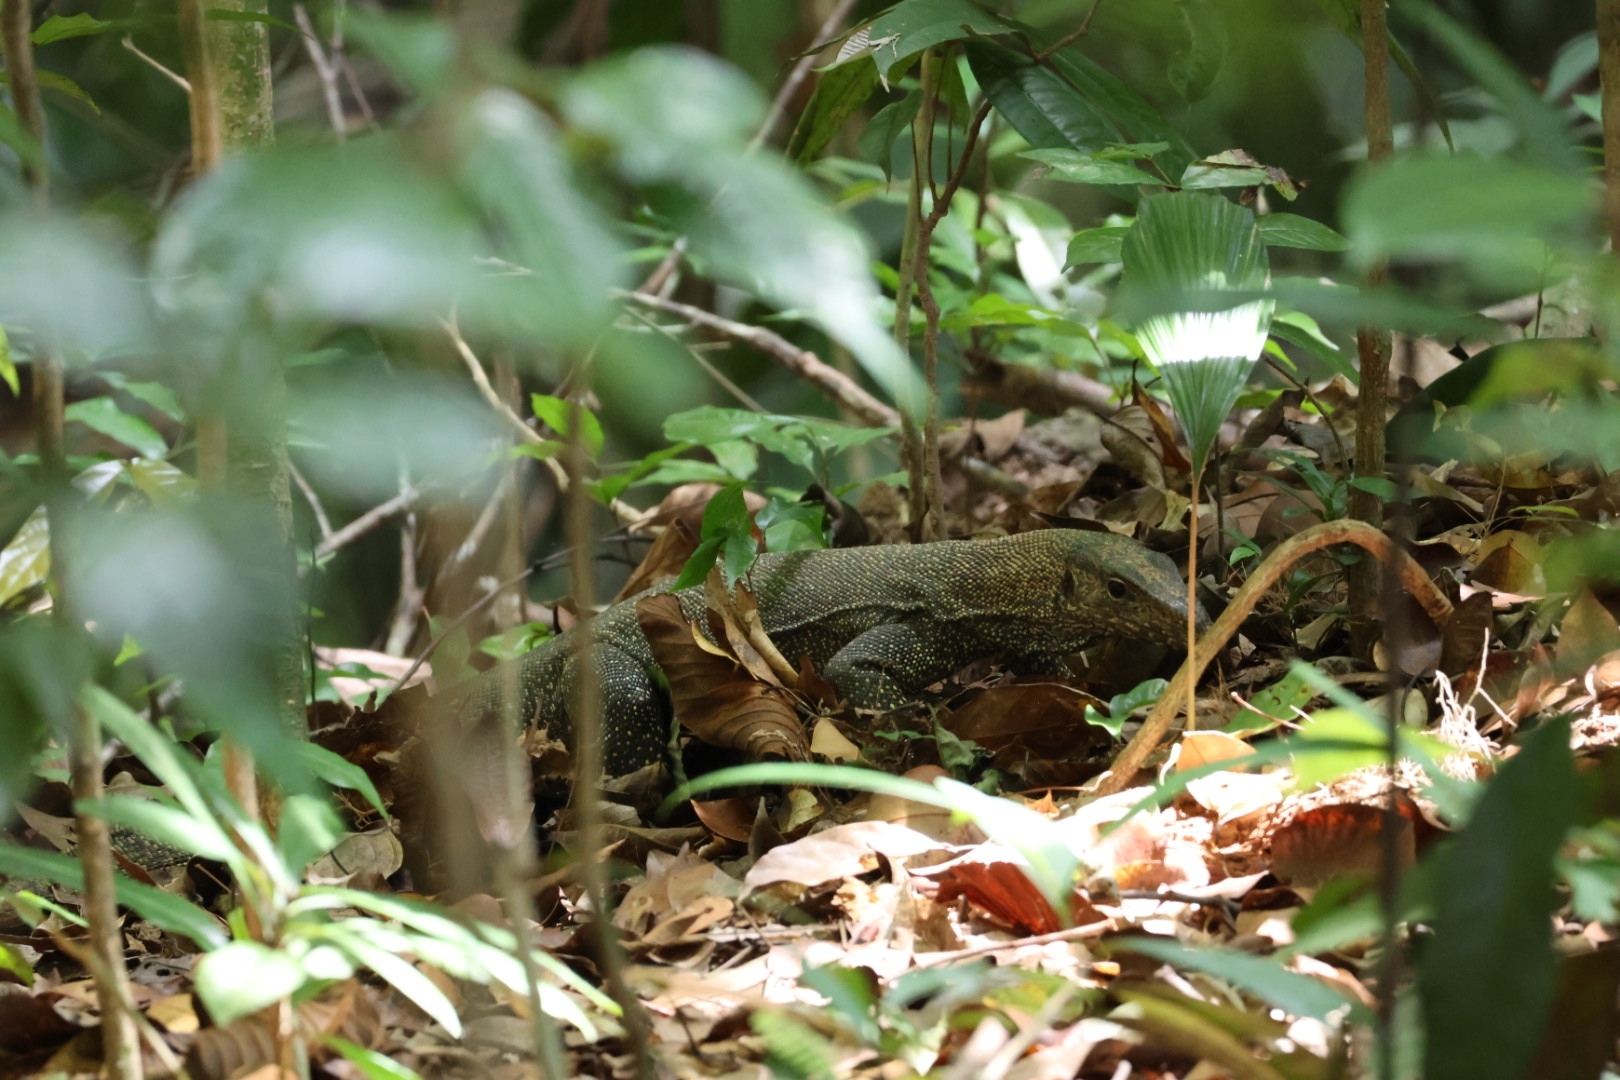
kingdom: Animalia
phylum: Chordata
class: Squamata
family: Varanidae
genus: Varanus
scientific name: Varanus nebulosus
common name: Clouded monitor
